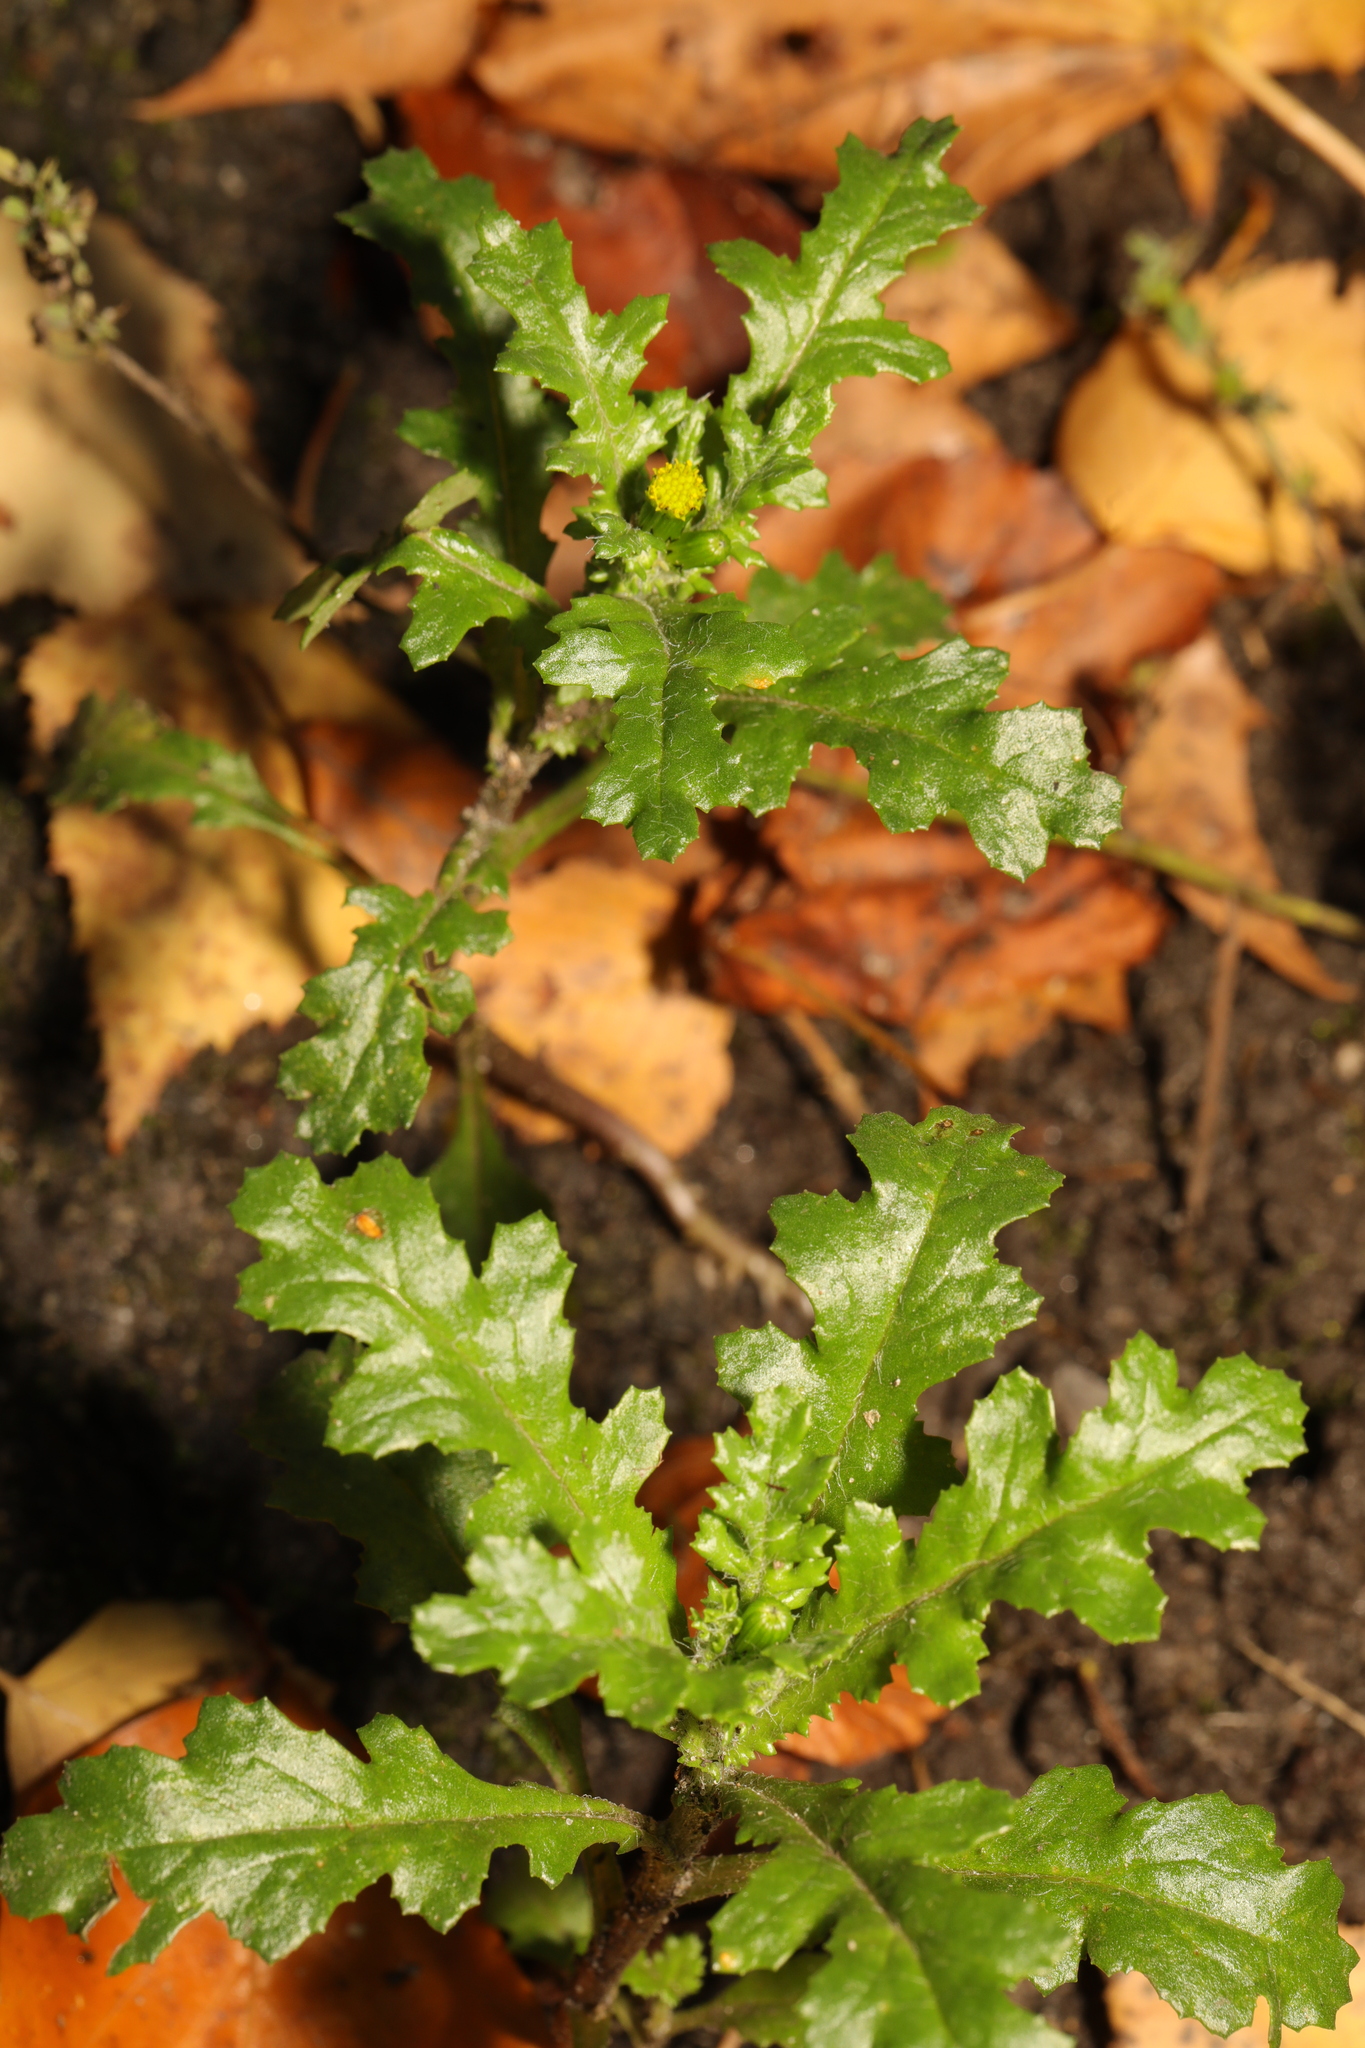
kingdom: Plantae
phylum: Tracheophyta
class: Magnoliopsida
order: Asterales
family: Asteraceae
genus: Senecio
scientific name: Senecio vulgaris
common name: Old-man-in-the-spring
